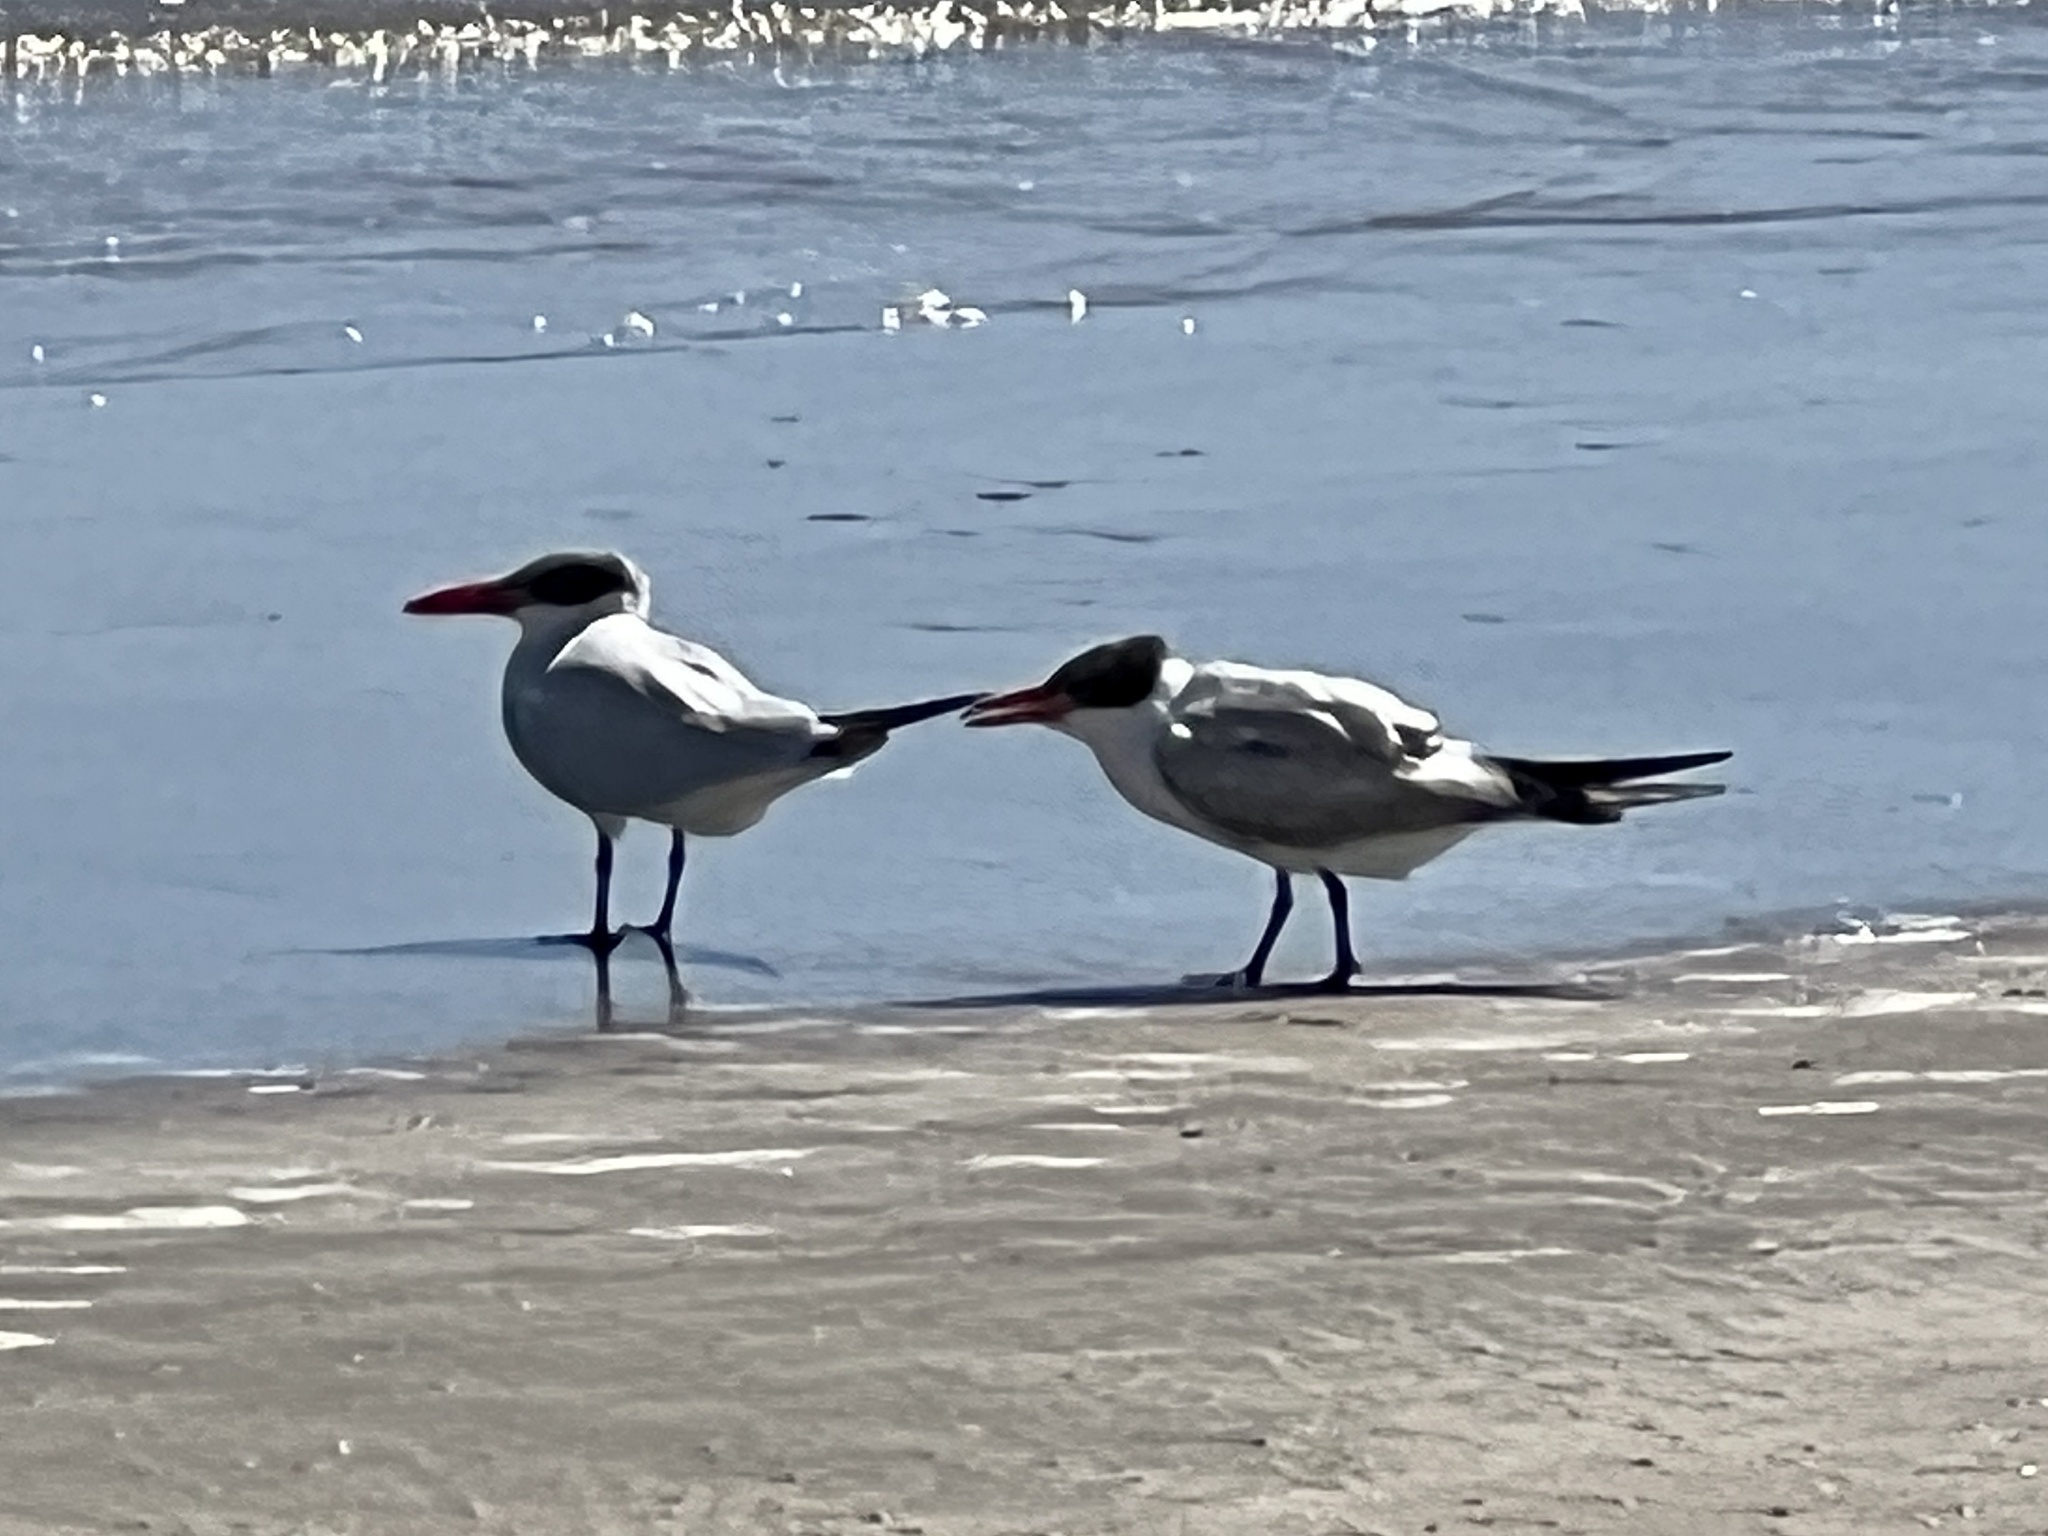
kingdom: Animalia
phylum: Chordata
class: Aves
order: Charadriiformes
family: Laridae
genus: Hydroprogne
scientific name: Hydroprogne caspia
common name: Caspian tern
